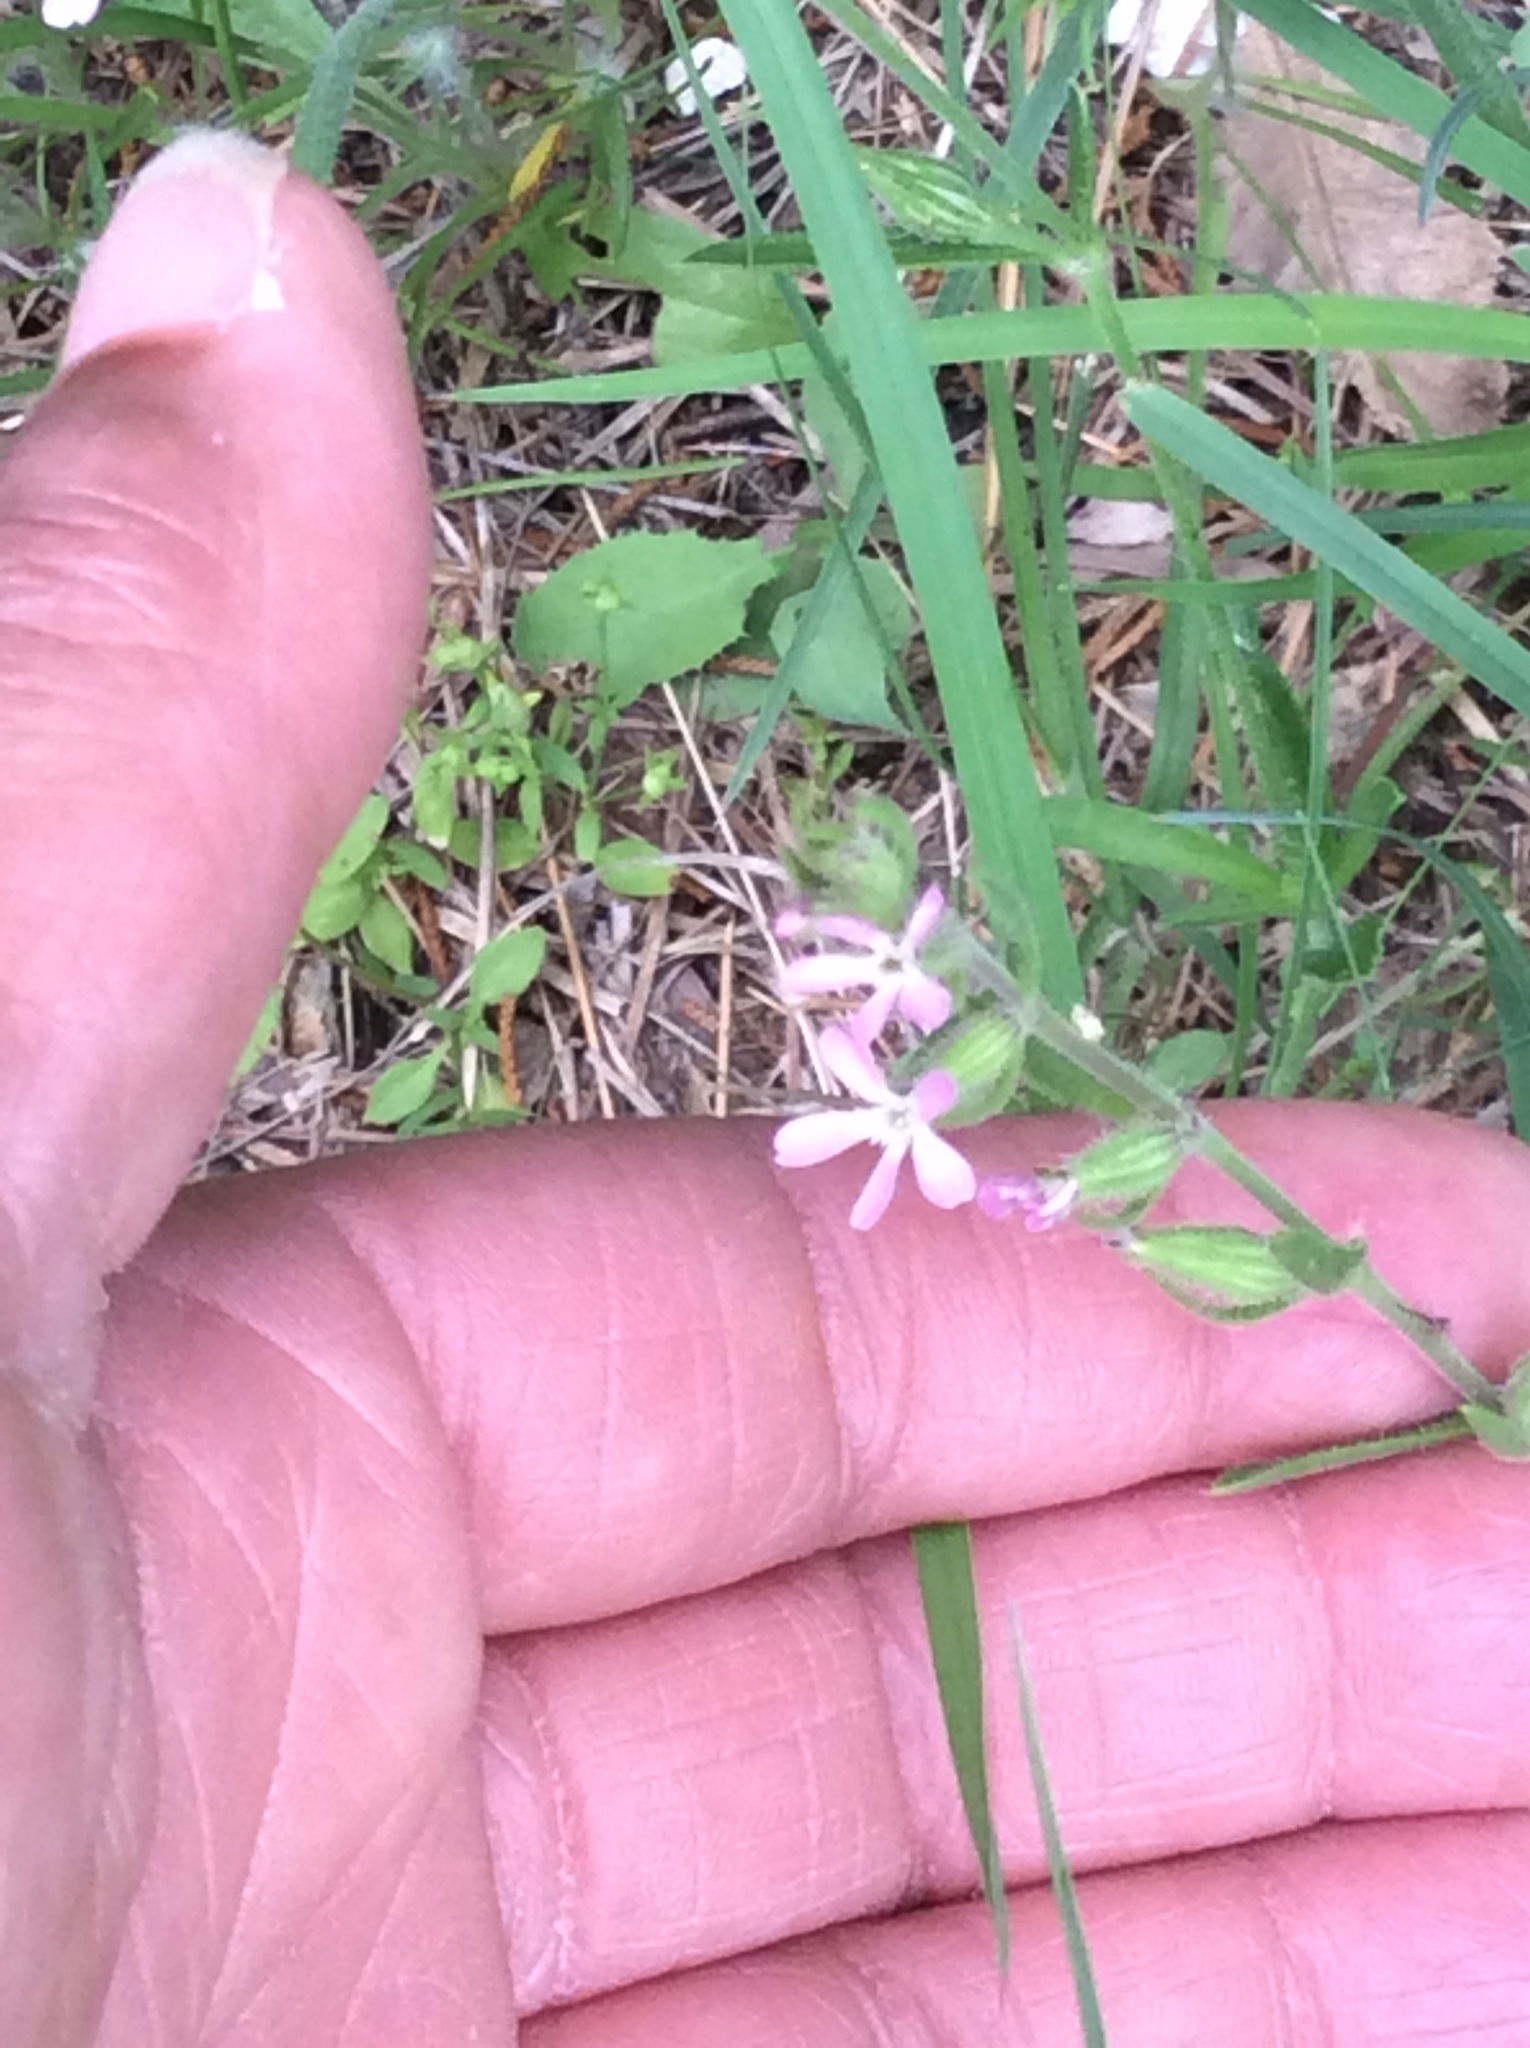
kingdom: Plantae
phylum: Tracheophyta
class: Magnoliopsida
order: Caryophyllales
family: Caryophyllaceae
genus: Silene
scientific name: Silene gallica
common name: Small-flowered catchfly
